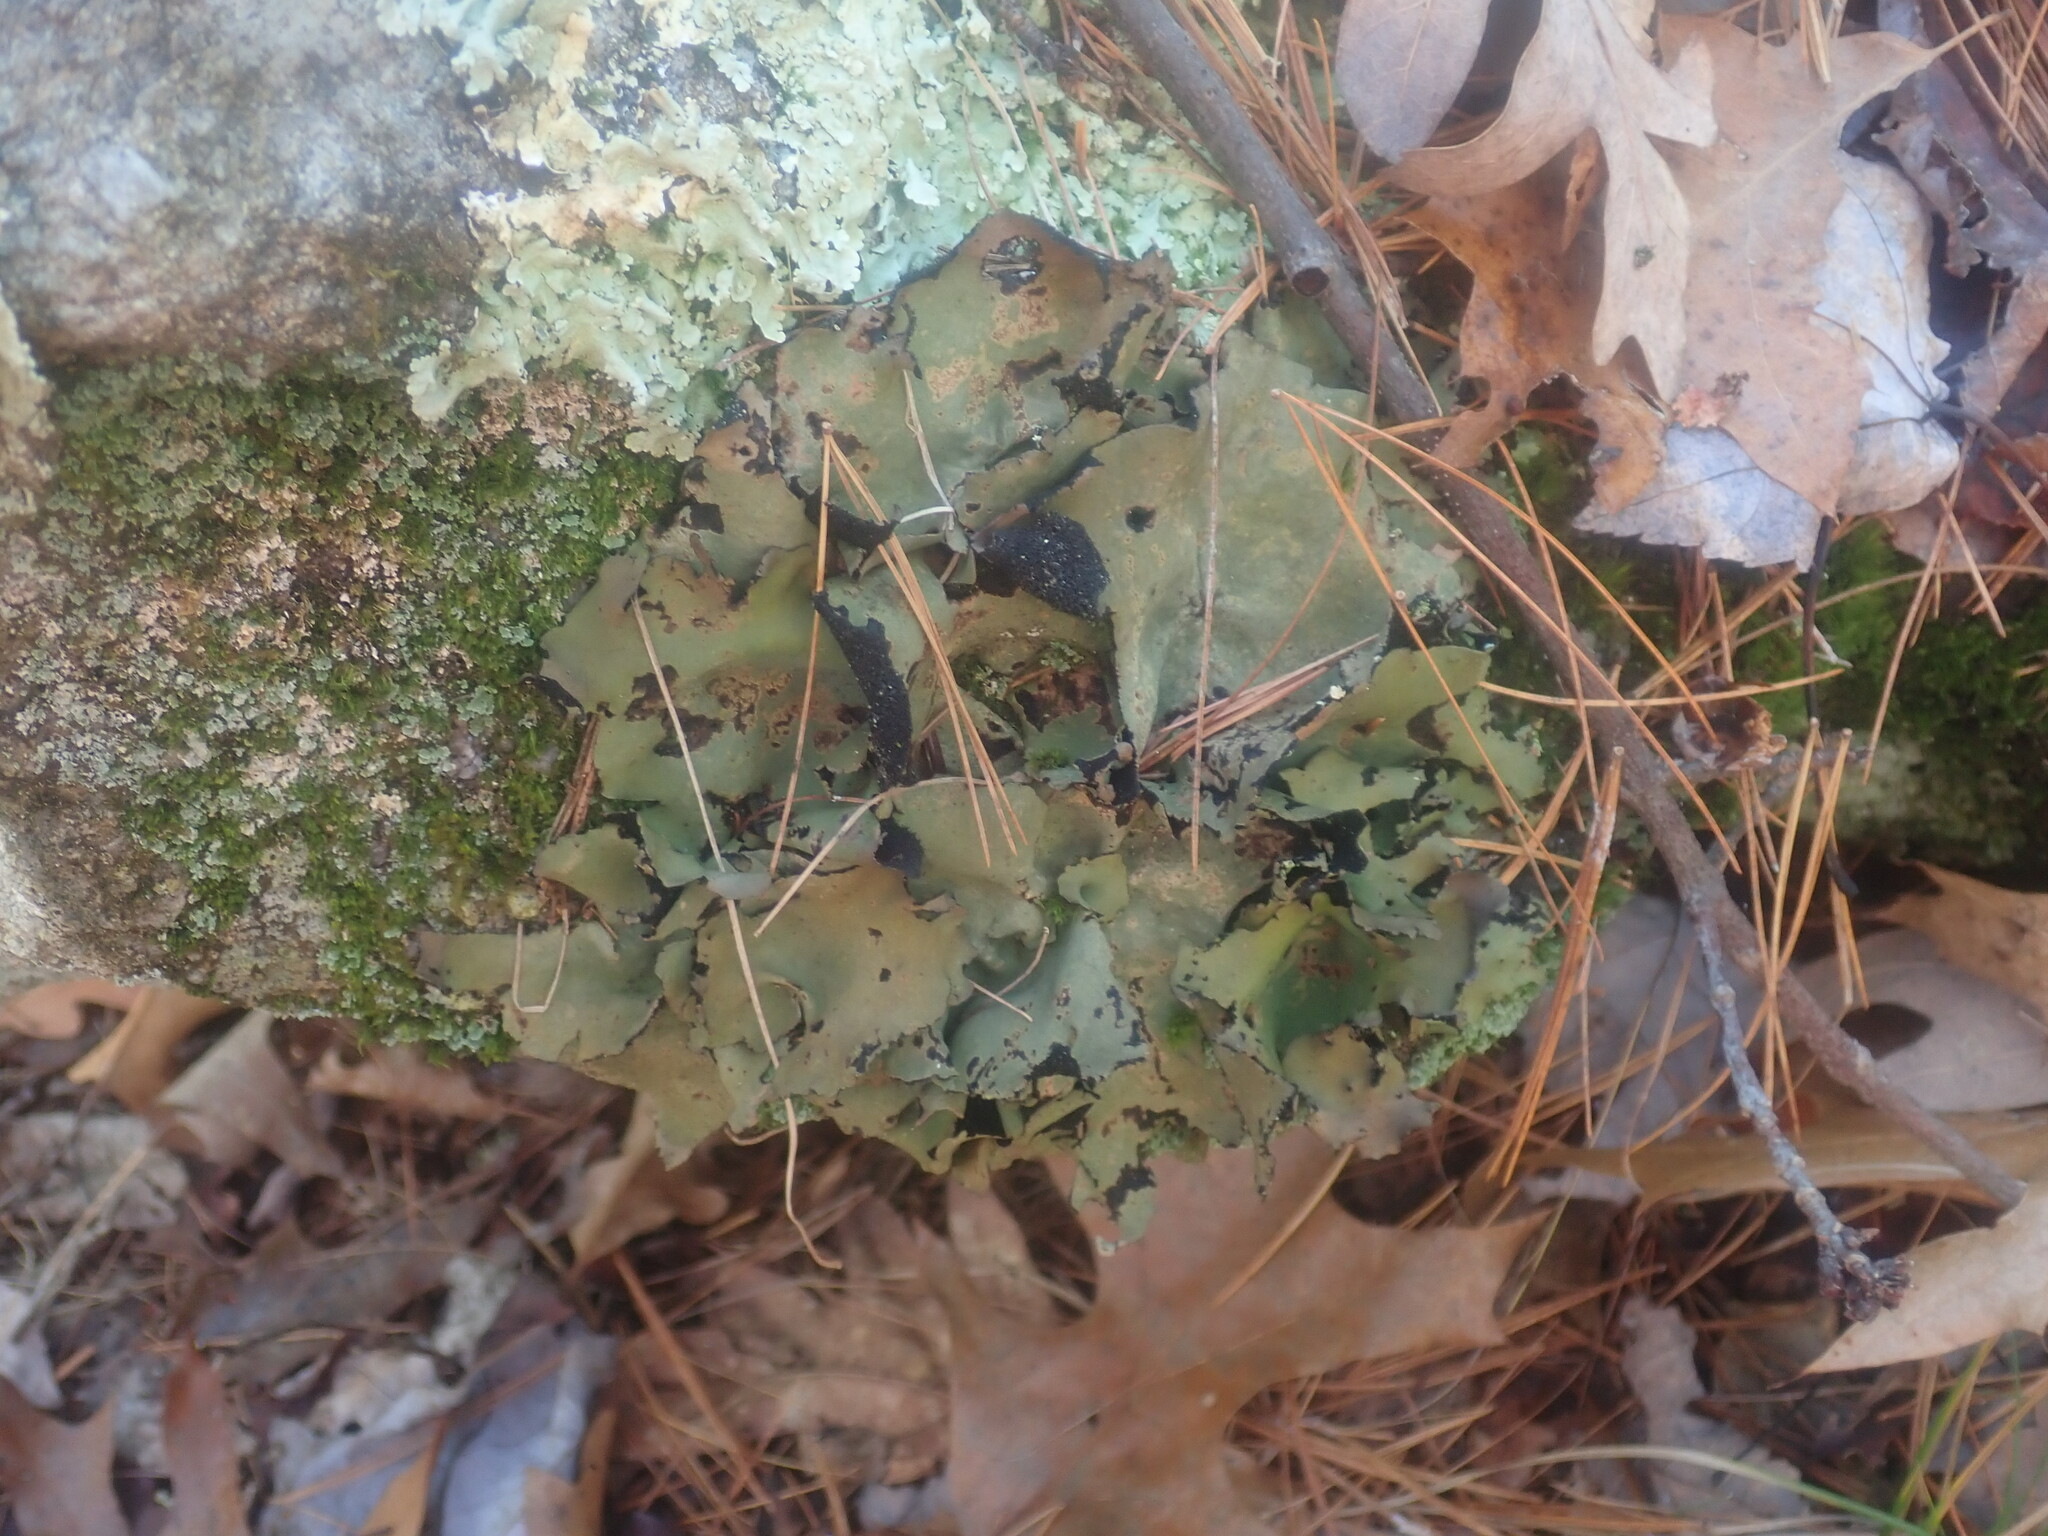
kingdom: Fungi
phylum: Ascomycota
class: Lecanoromycetes
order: Umbilicariales
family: Umbilicariaceae
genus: Umbilicaria
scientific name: Umbilicaria mammulata
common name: Smooth rock tripe
